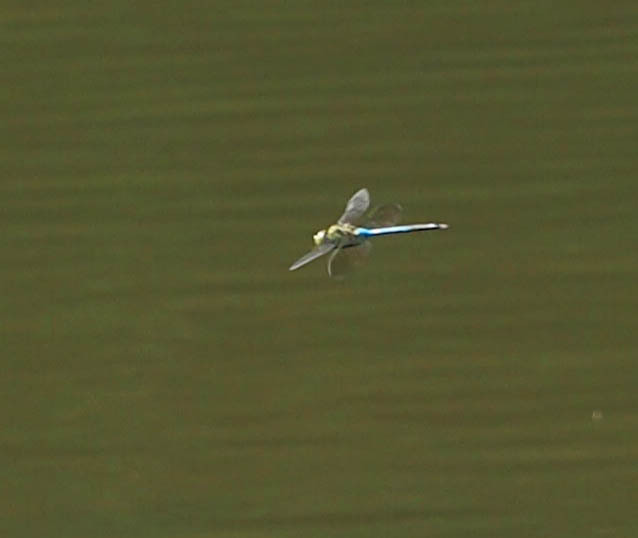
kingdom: Animalia
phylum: Arthropoda
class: Insecta
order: Odonata
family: Aeshnidae
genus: Anax
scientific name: Anax junius
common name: Common green darner
